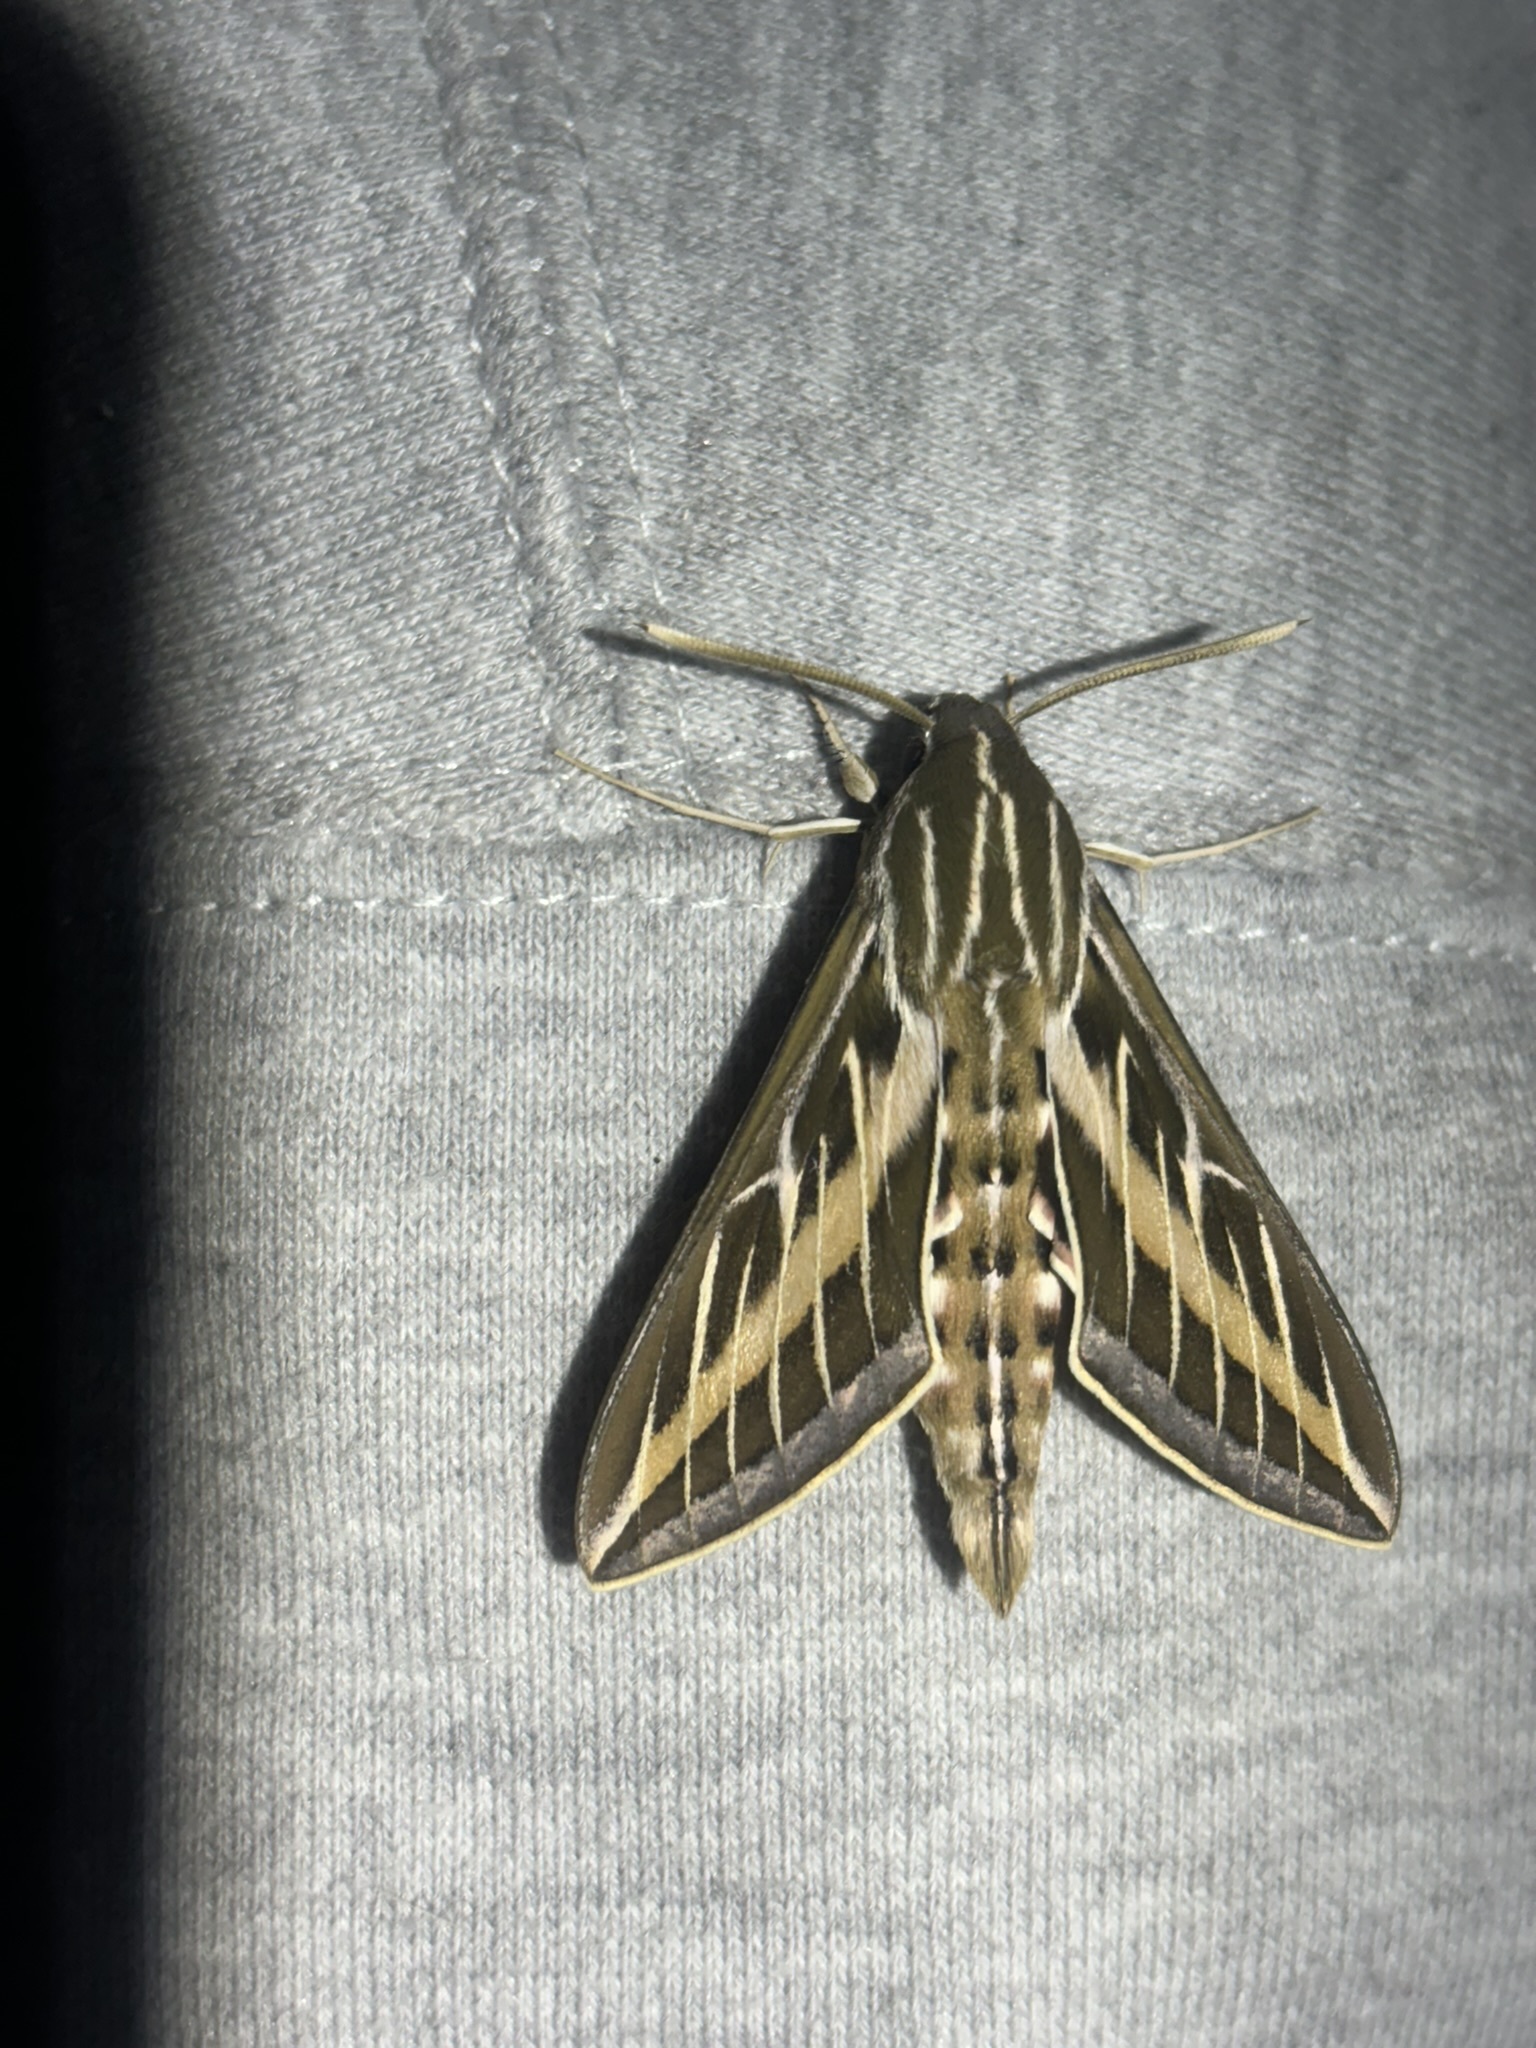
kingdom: Animalia
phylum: Arthropoda
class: Insecta
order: Lepidoptera
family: Sphingidae
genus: Hyles
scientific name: Hyles lineata
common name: White-lined sphinx
